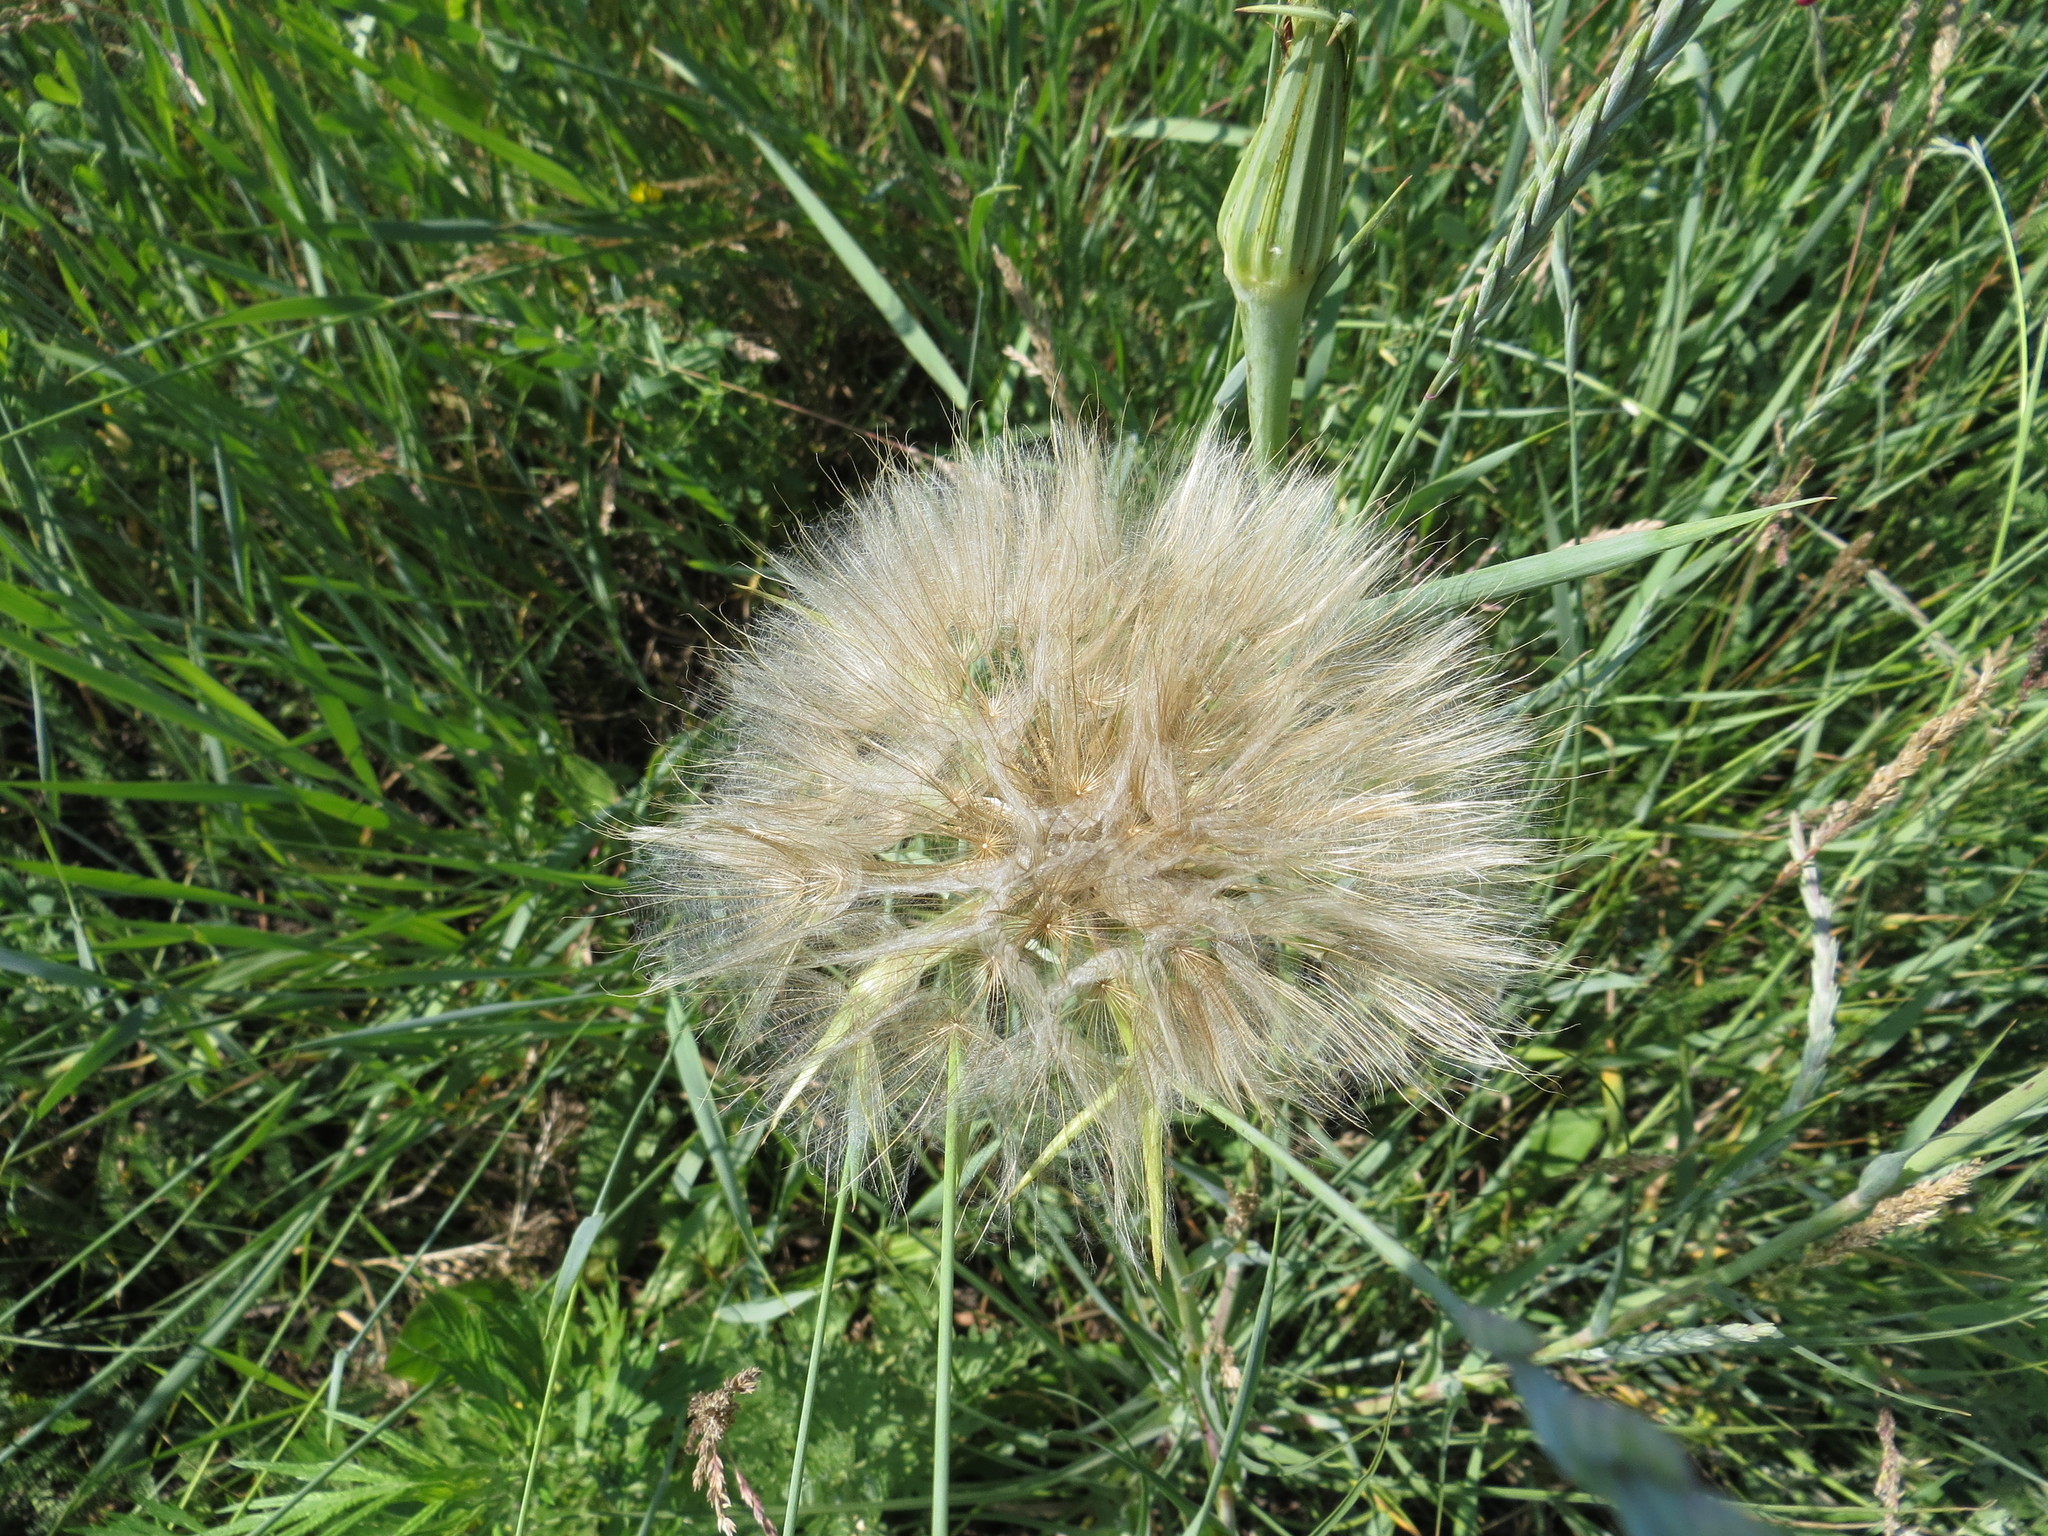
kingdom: Plantae
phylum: Tracheophyta
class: Magnoliopsida
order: Asterales
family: Asteraceae
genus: Tragopogon
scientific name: Tragopogon dubius
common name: Yellow salsify
